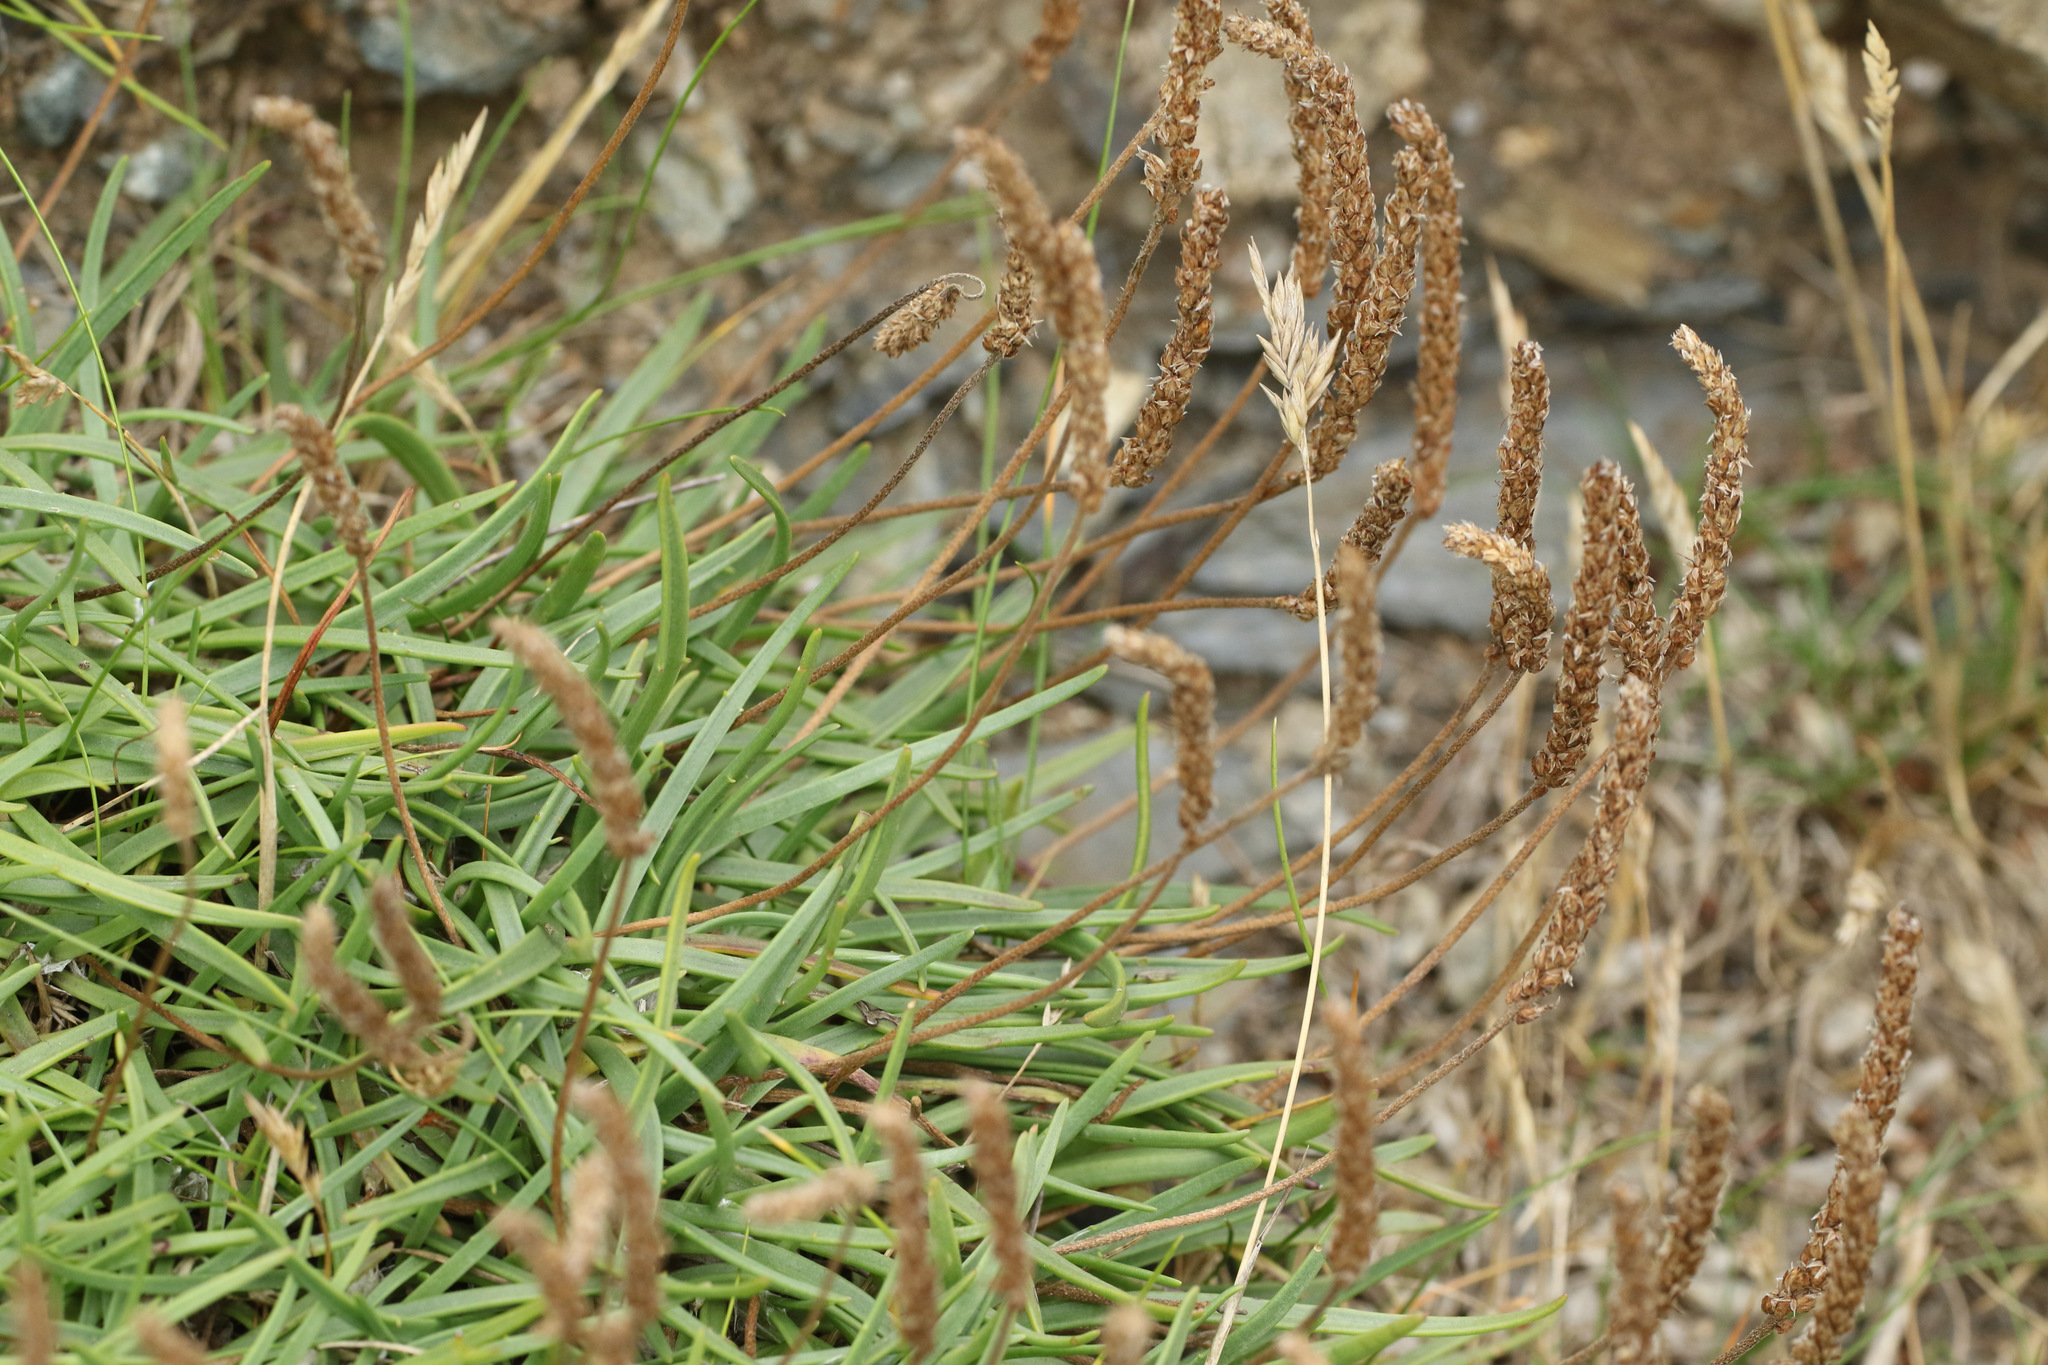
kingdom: Plantae
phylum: Tracheophyta
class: Magnoliopsida
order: Lamiales
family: Plantaginaceae
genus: Plantago
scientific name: Plantago maritima
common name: Sea plantain
